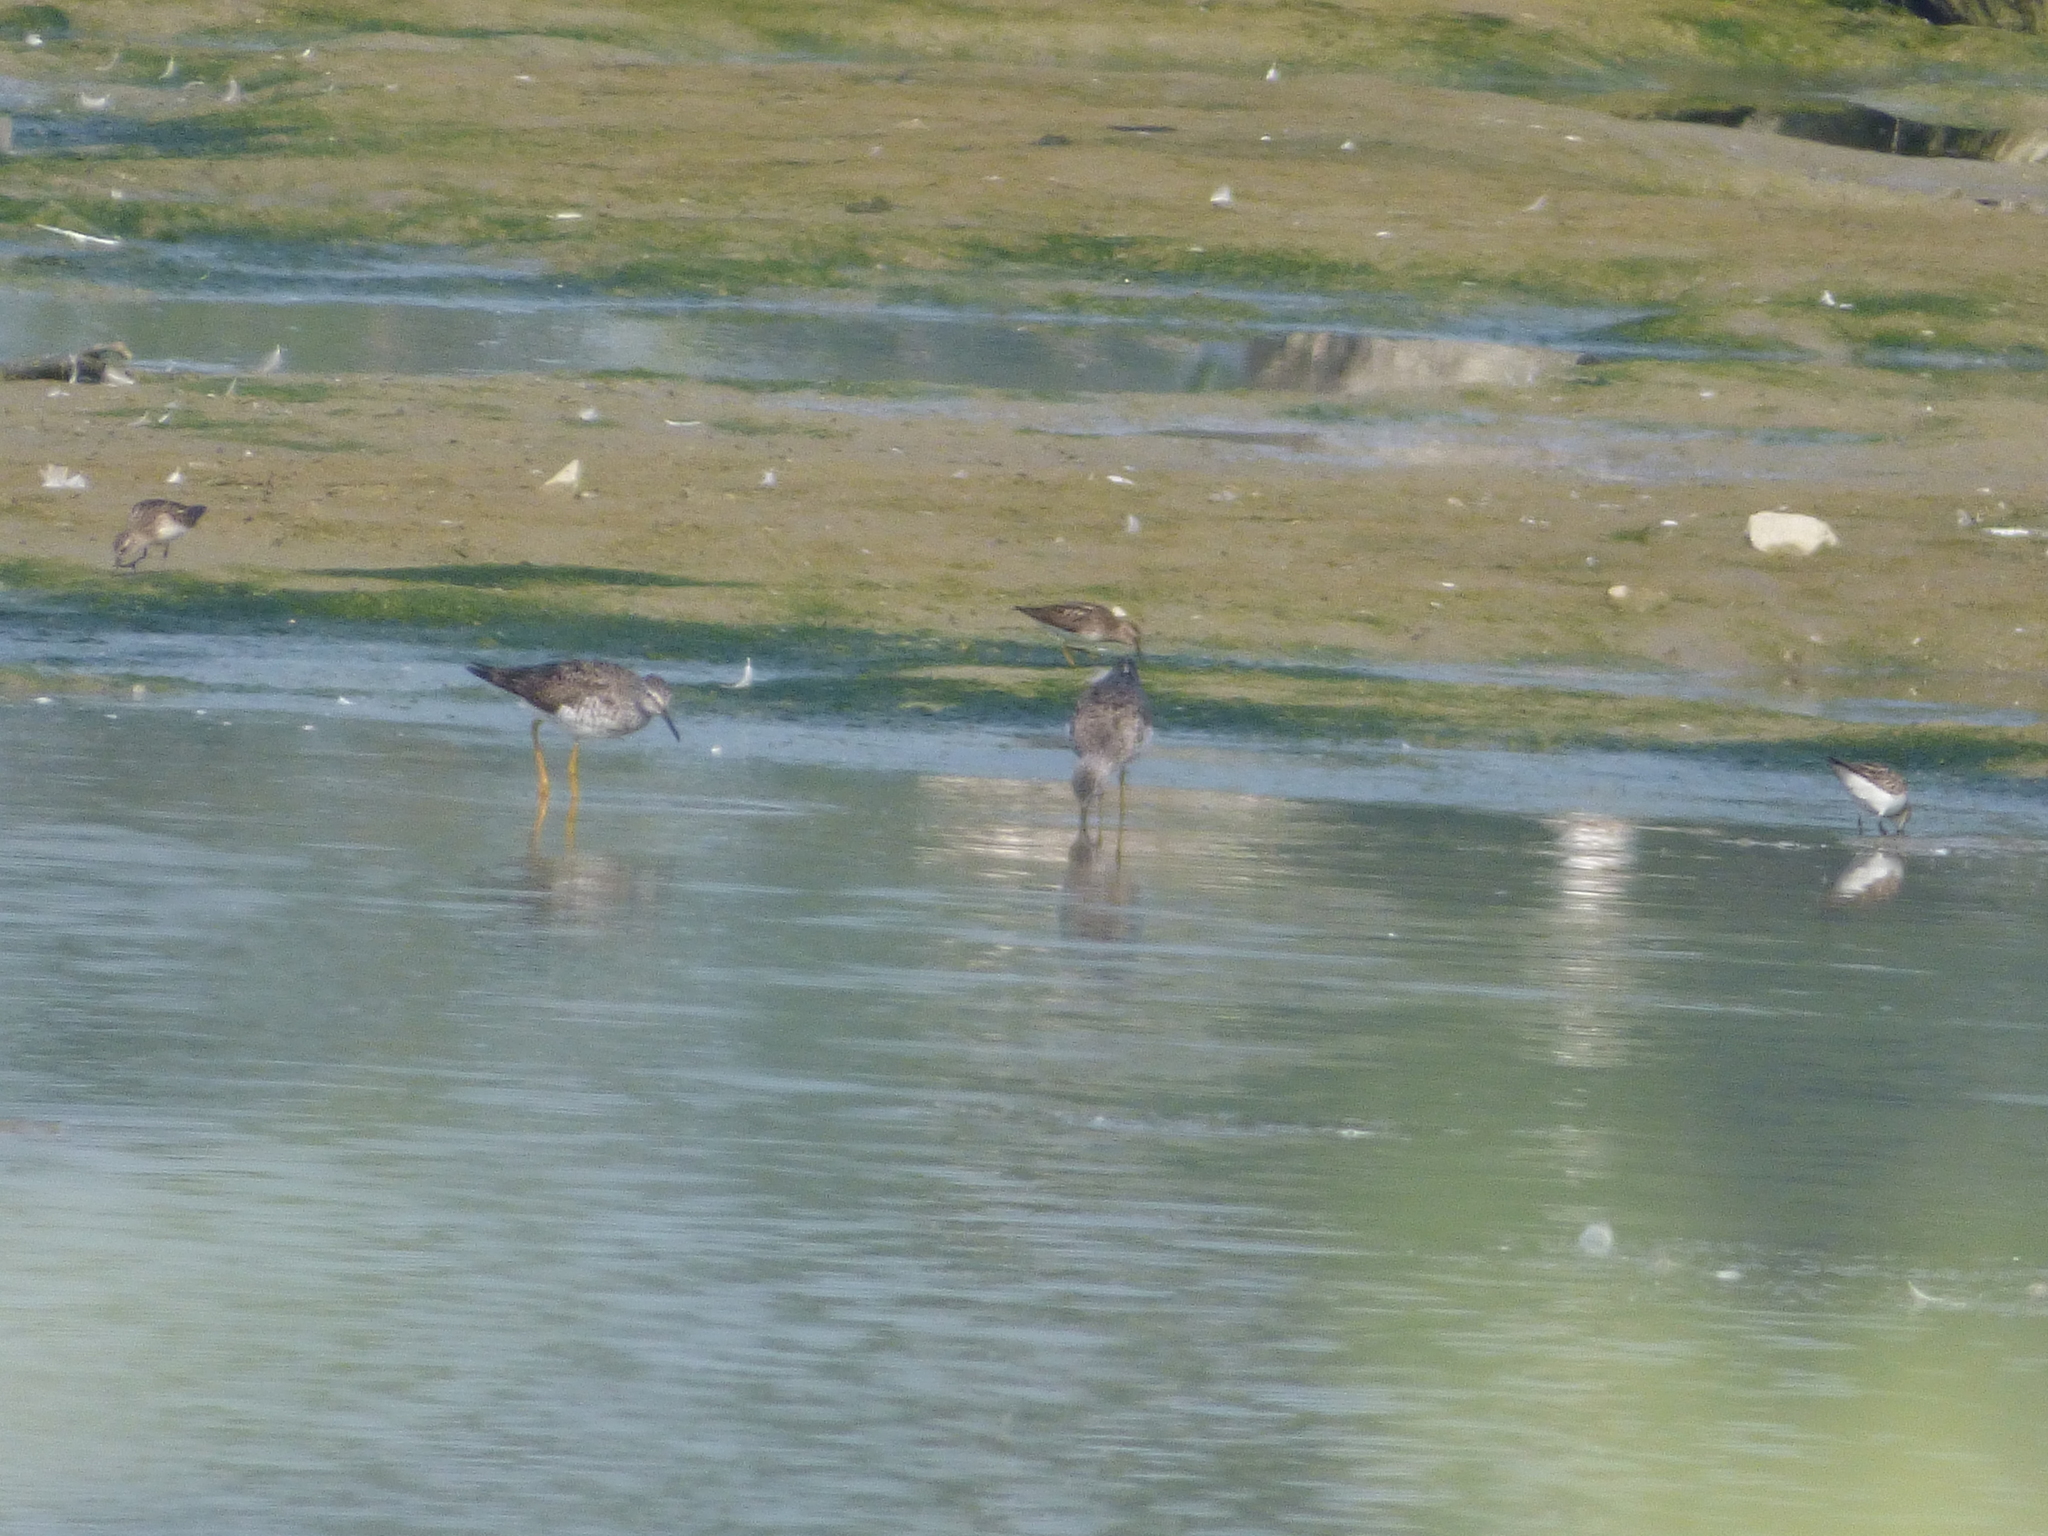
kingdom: Animalia
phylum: Chordata
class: Aves
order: Charadriiformes
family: Scolopacidae
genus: Tringa
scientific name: Tringa flavipes
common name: Lesser yellowlegs
